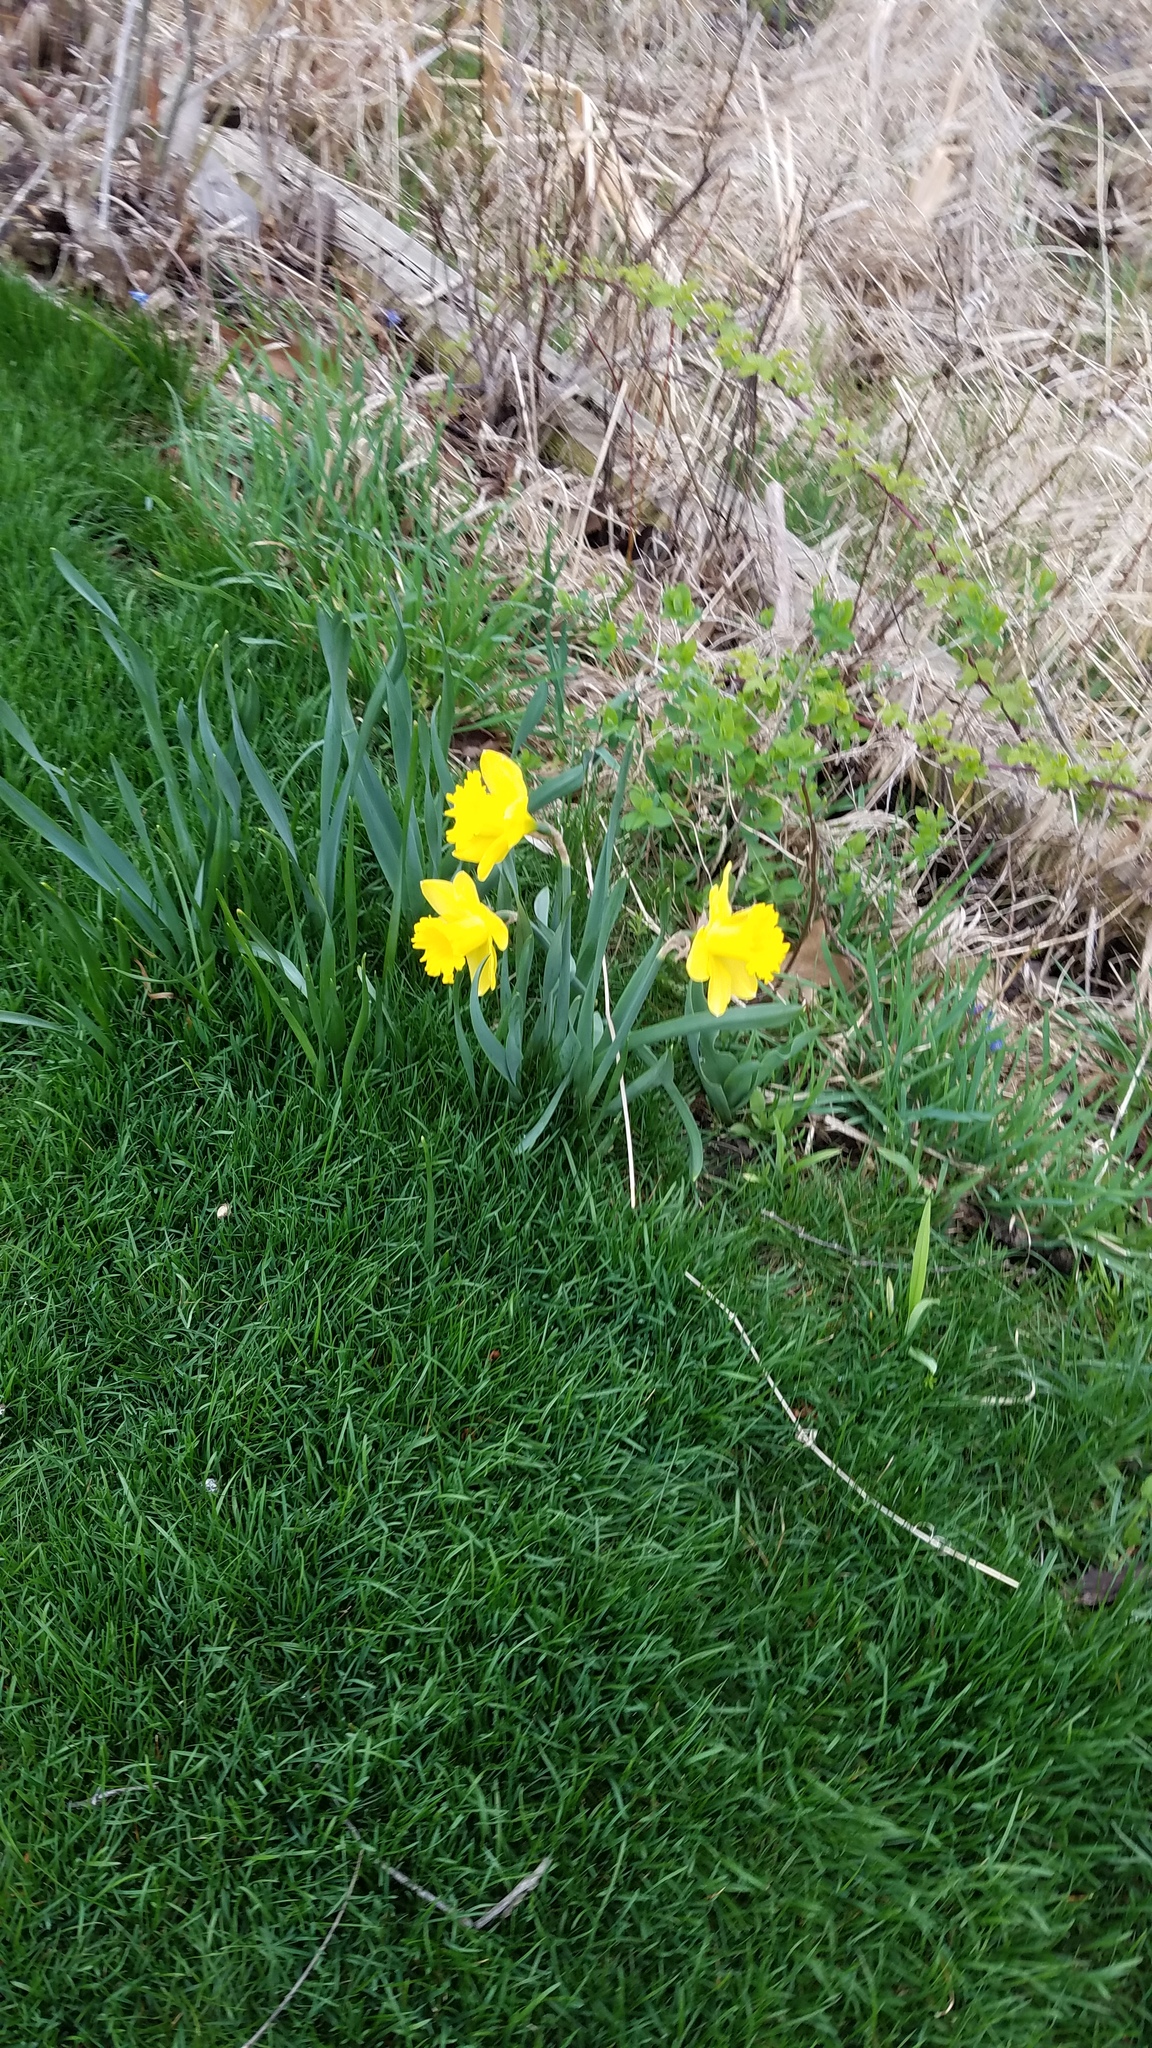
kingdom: Plantae
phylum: Tracheophyta
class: Liliopsida
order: Asparagales
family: Amaryllidaceae
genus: Narcissus
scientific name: Narcissus pseudonarcissus
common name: Daffodil
